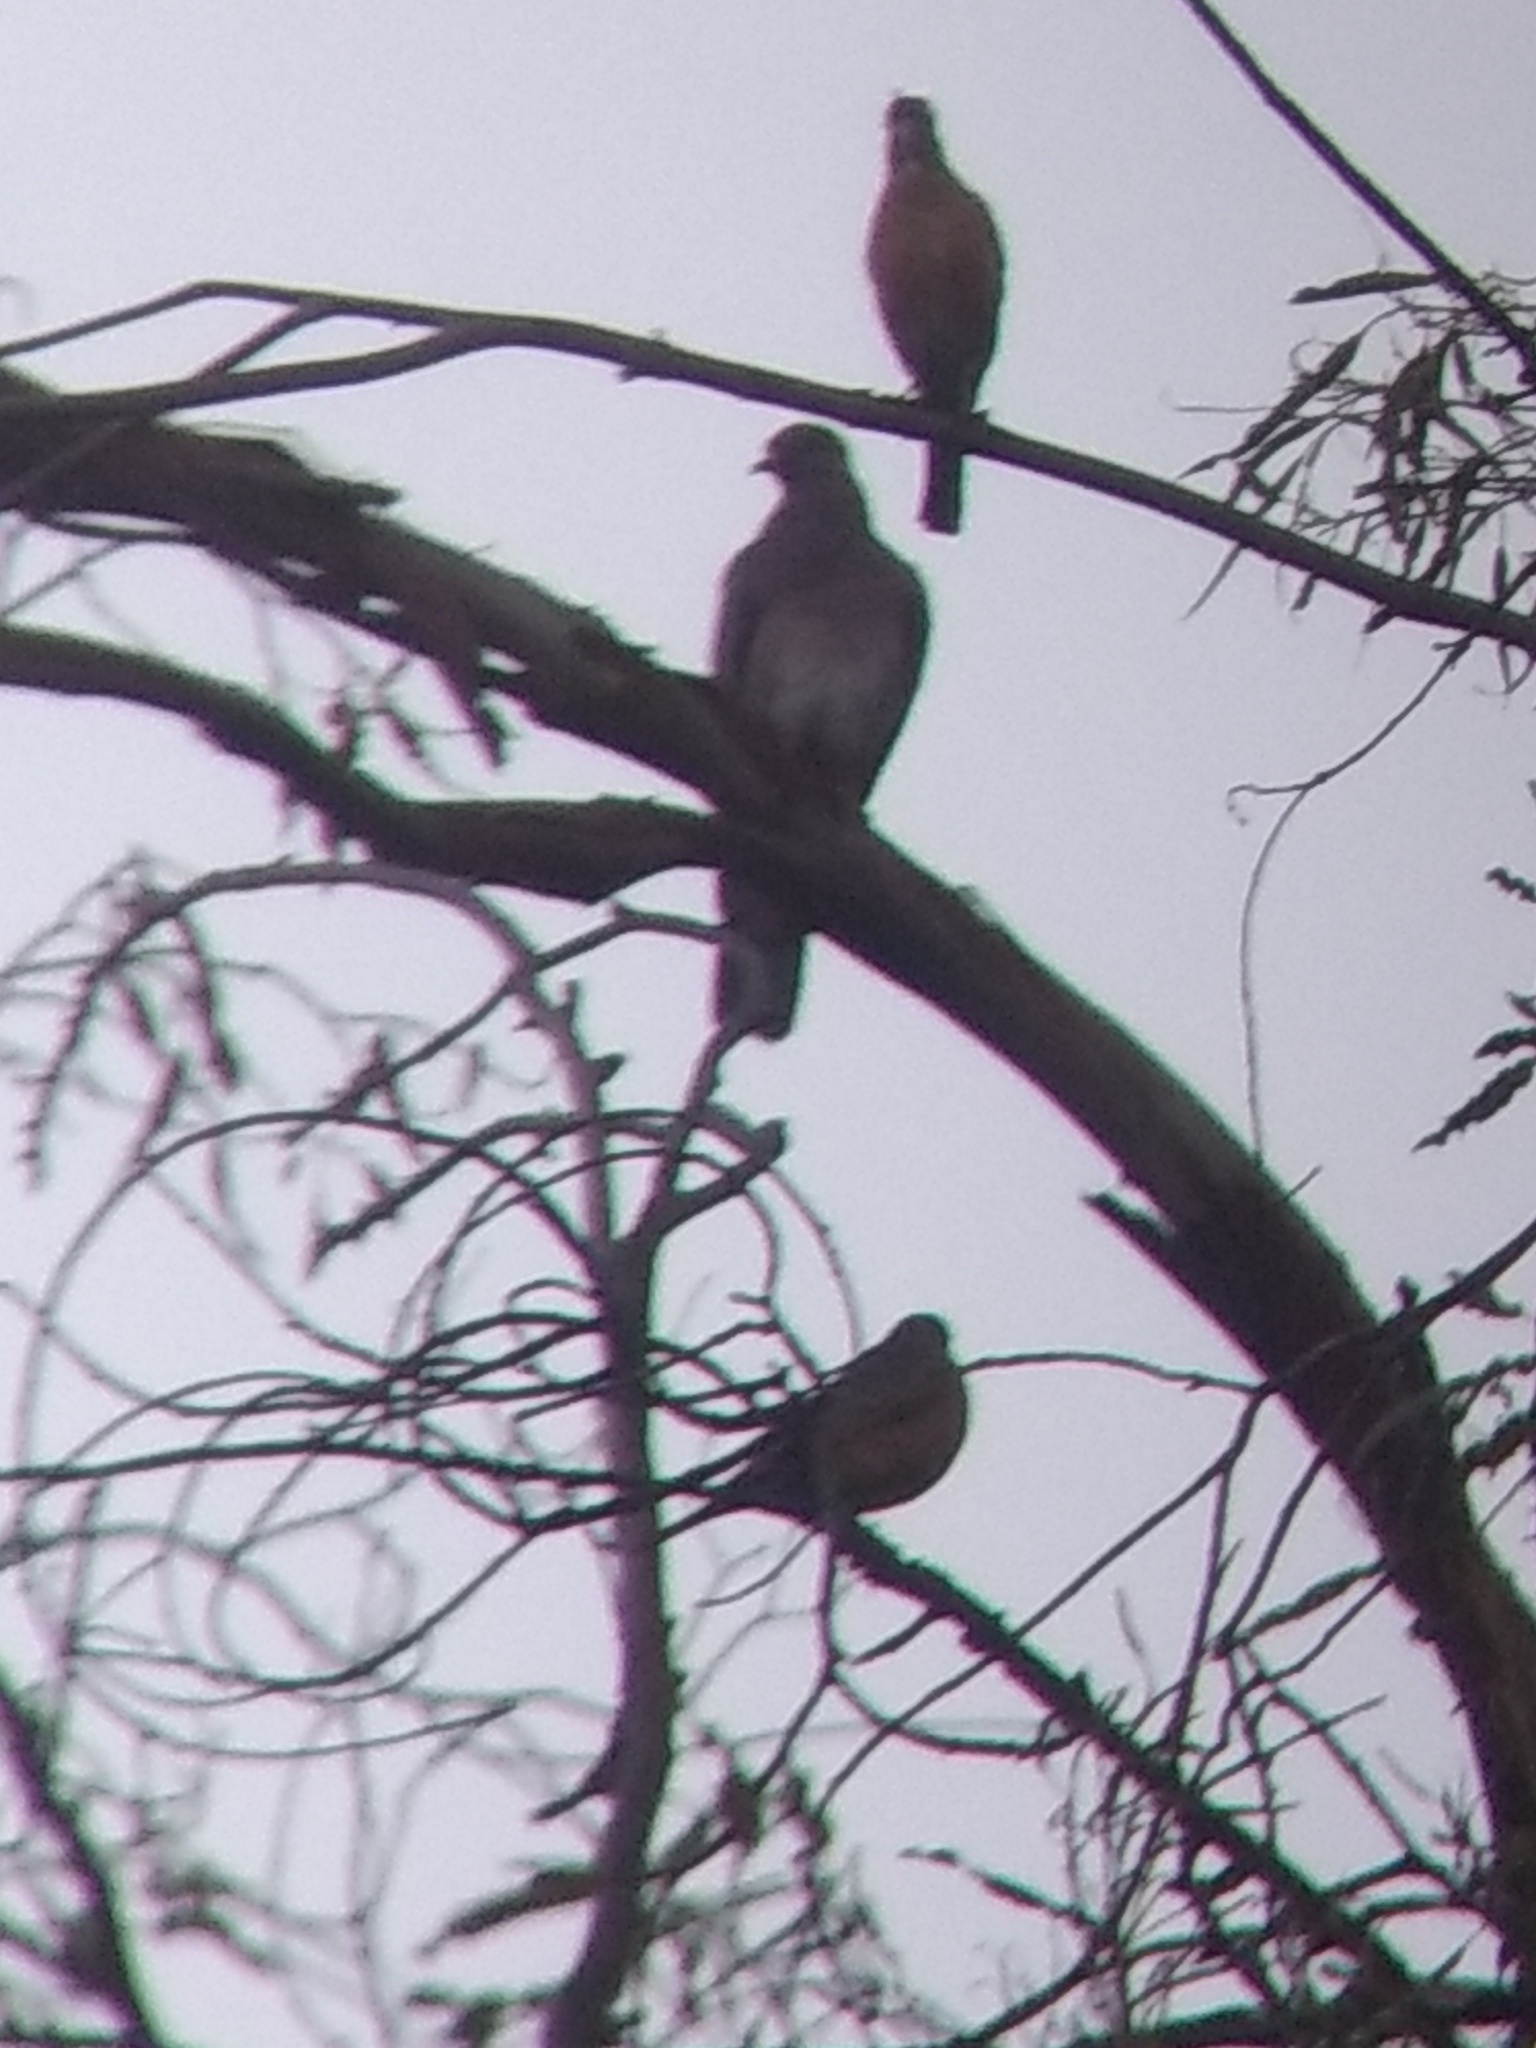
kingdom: Animalia
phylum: Chordata
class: Aves
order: Columbiformes
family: Columbidae
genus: Patagioenas
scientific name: Patagioenas fasciata
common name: Band-tailed pigeon
